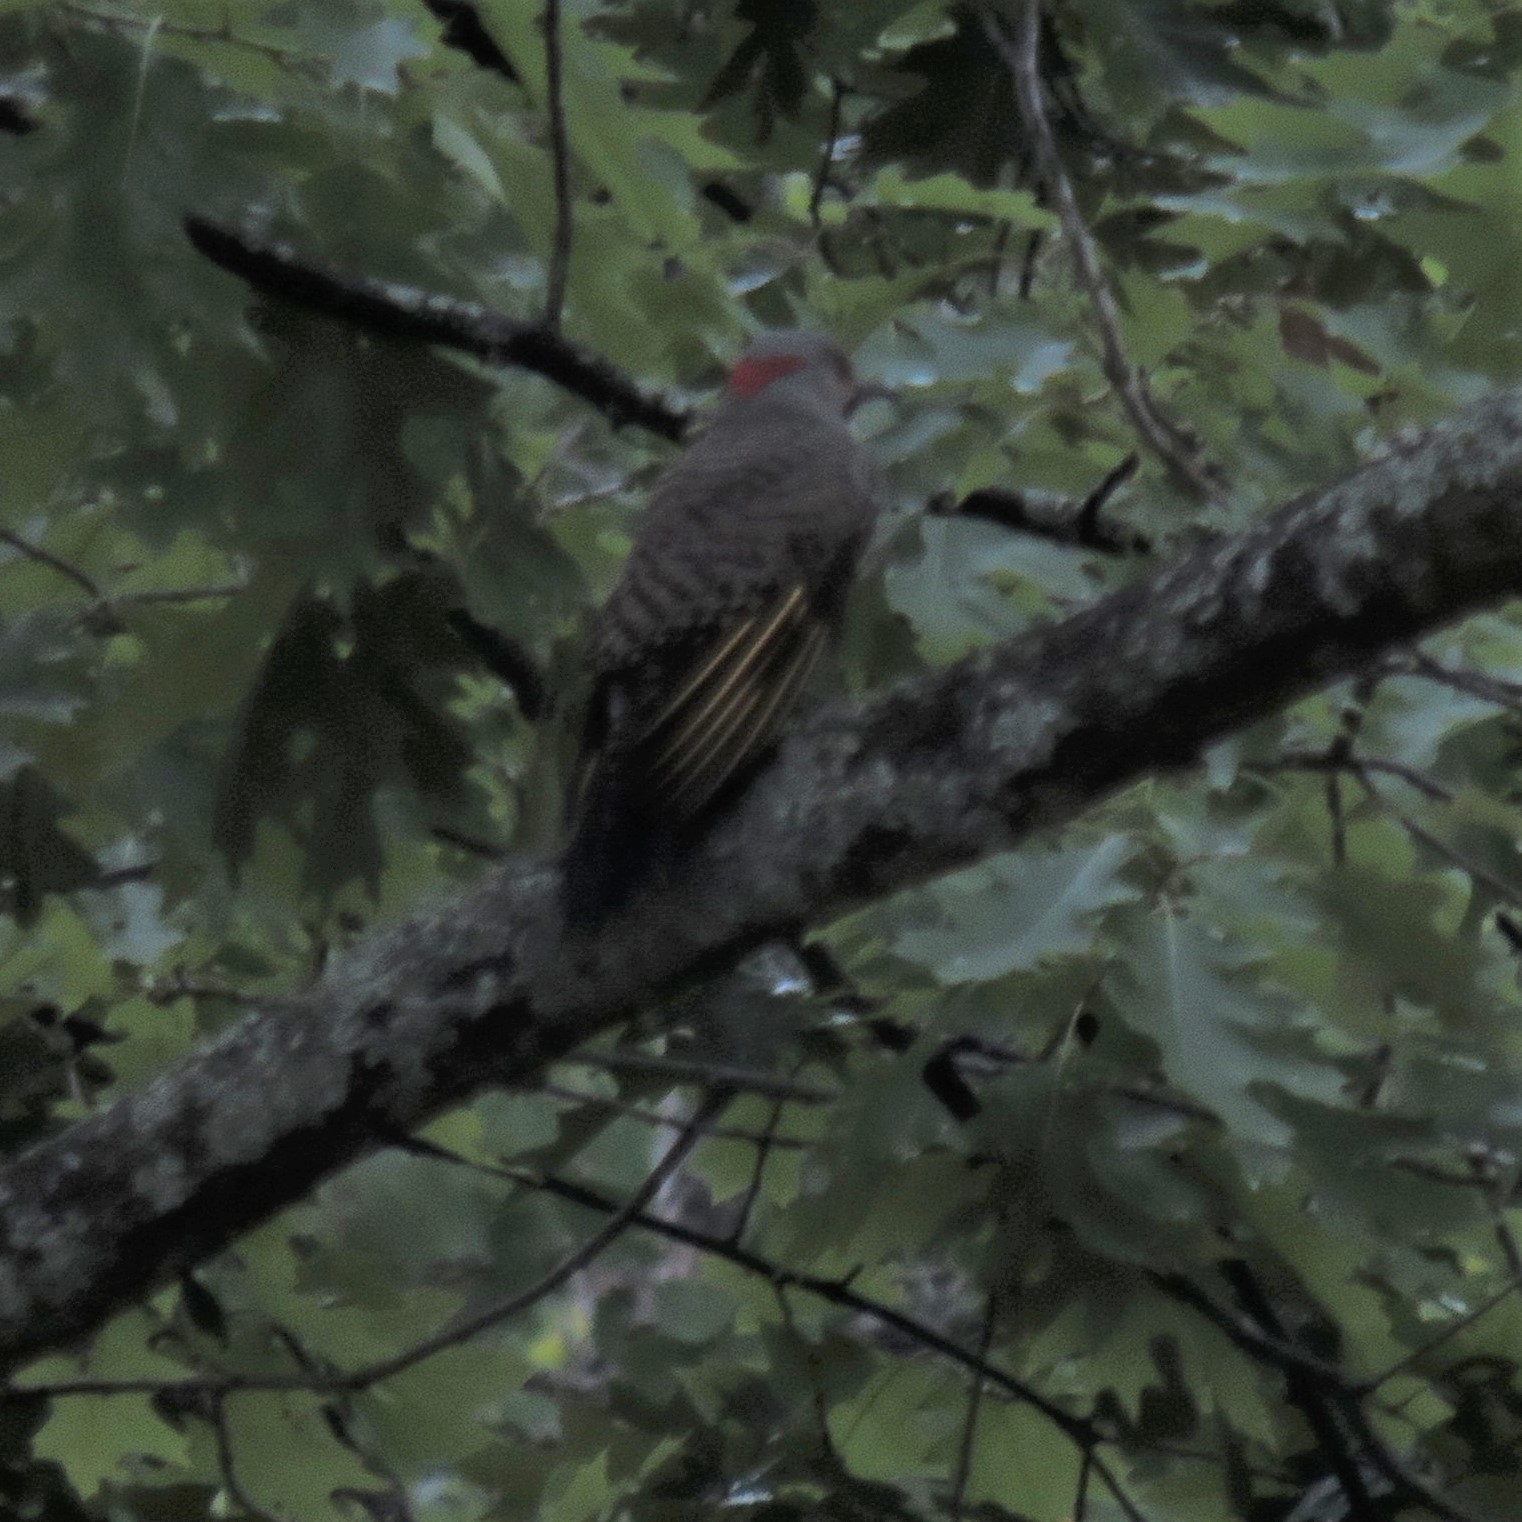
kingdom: Animalia
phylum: Chordata
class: Aves
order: Piciformes
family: Picidae
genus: Colaptes
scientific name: Colaptes auratus
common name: Northern flicker
